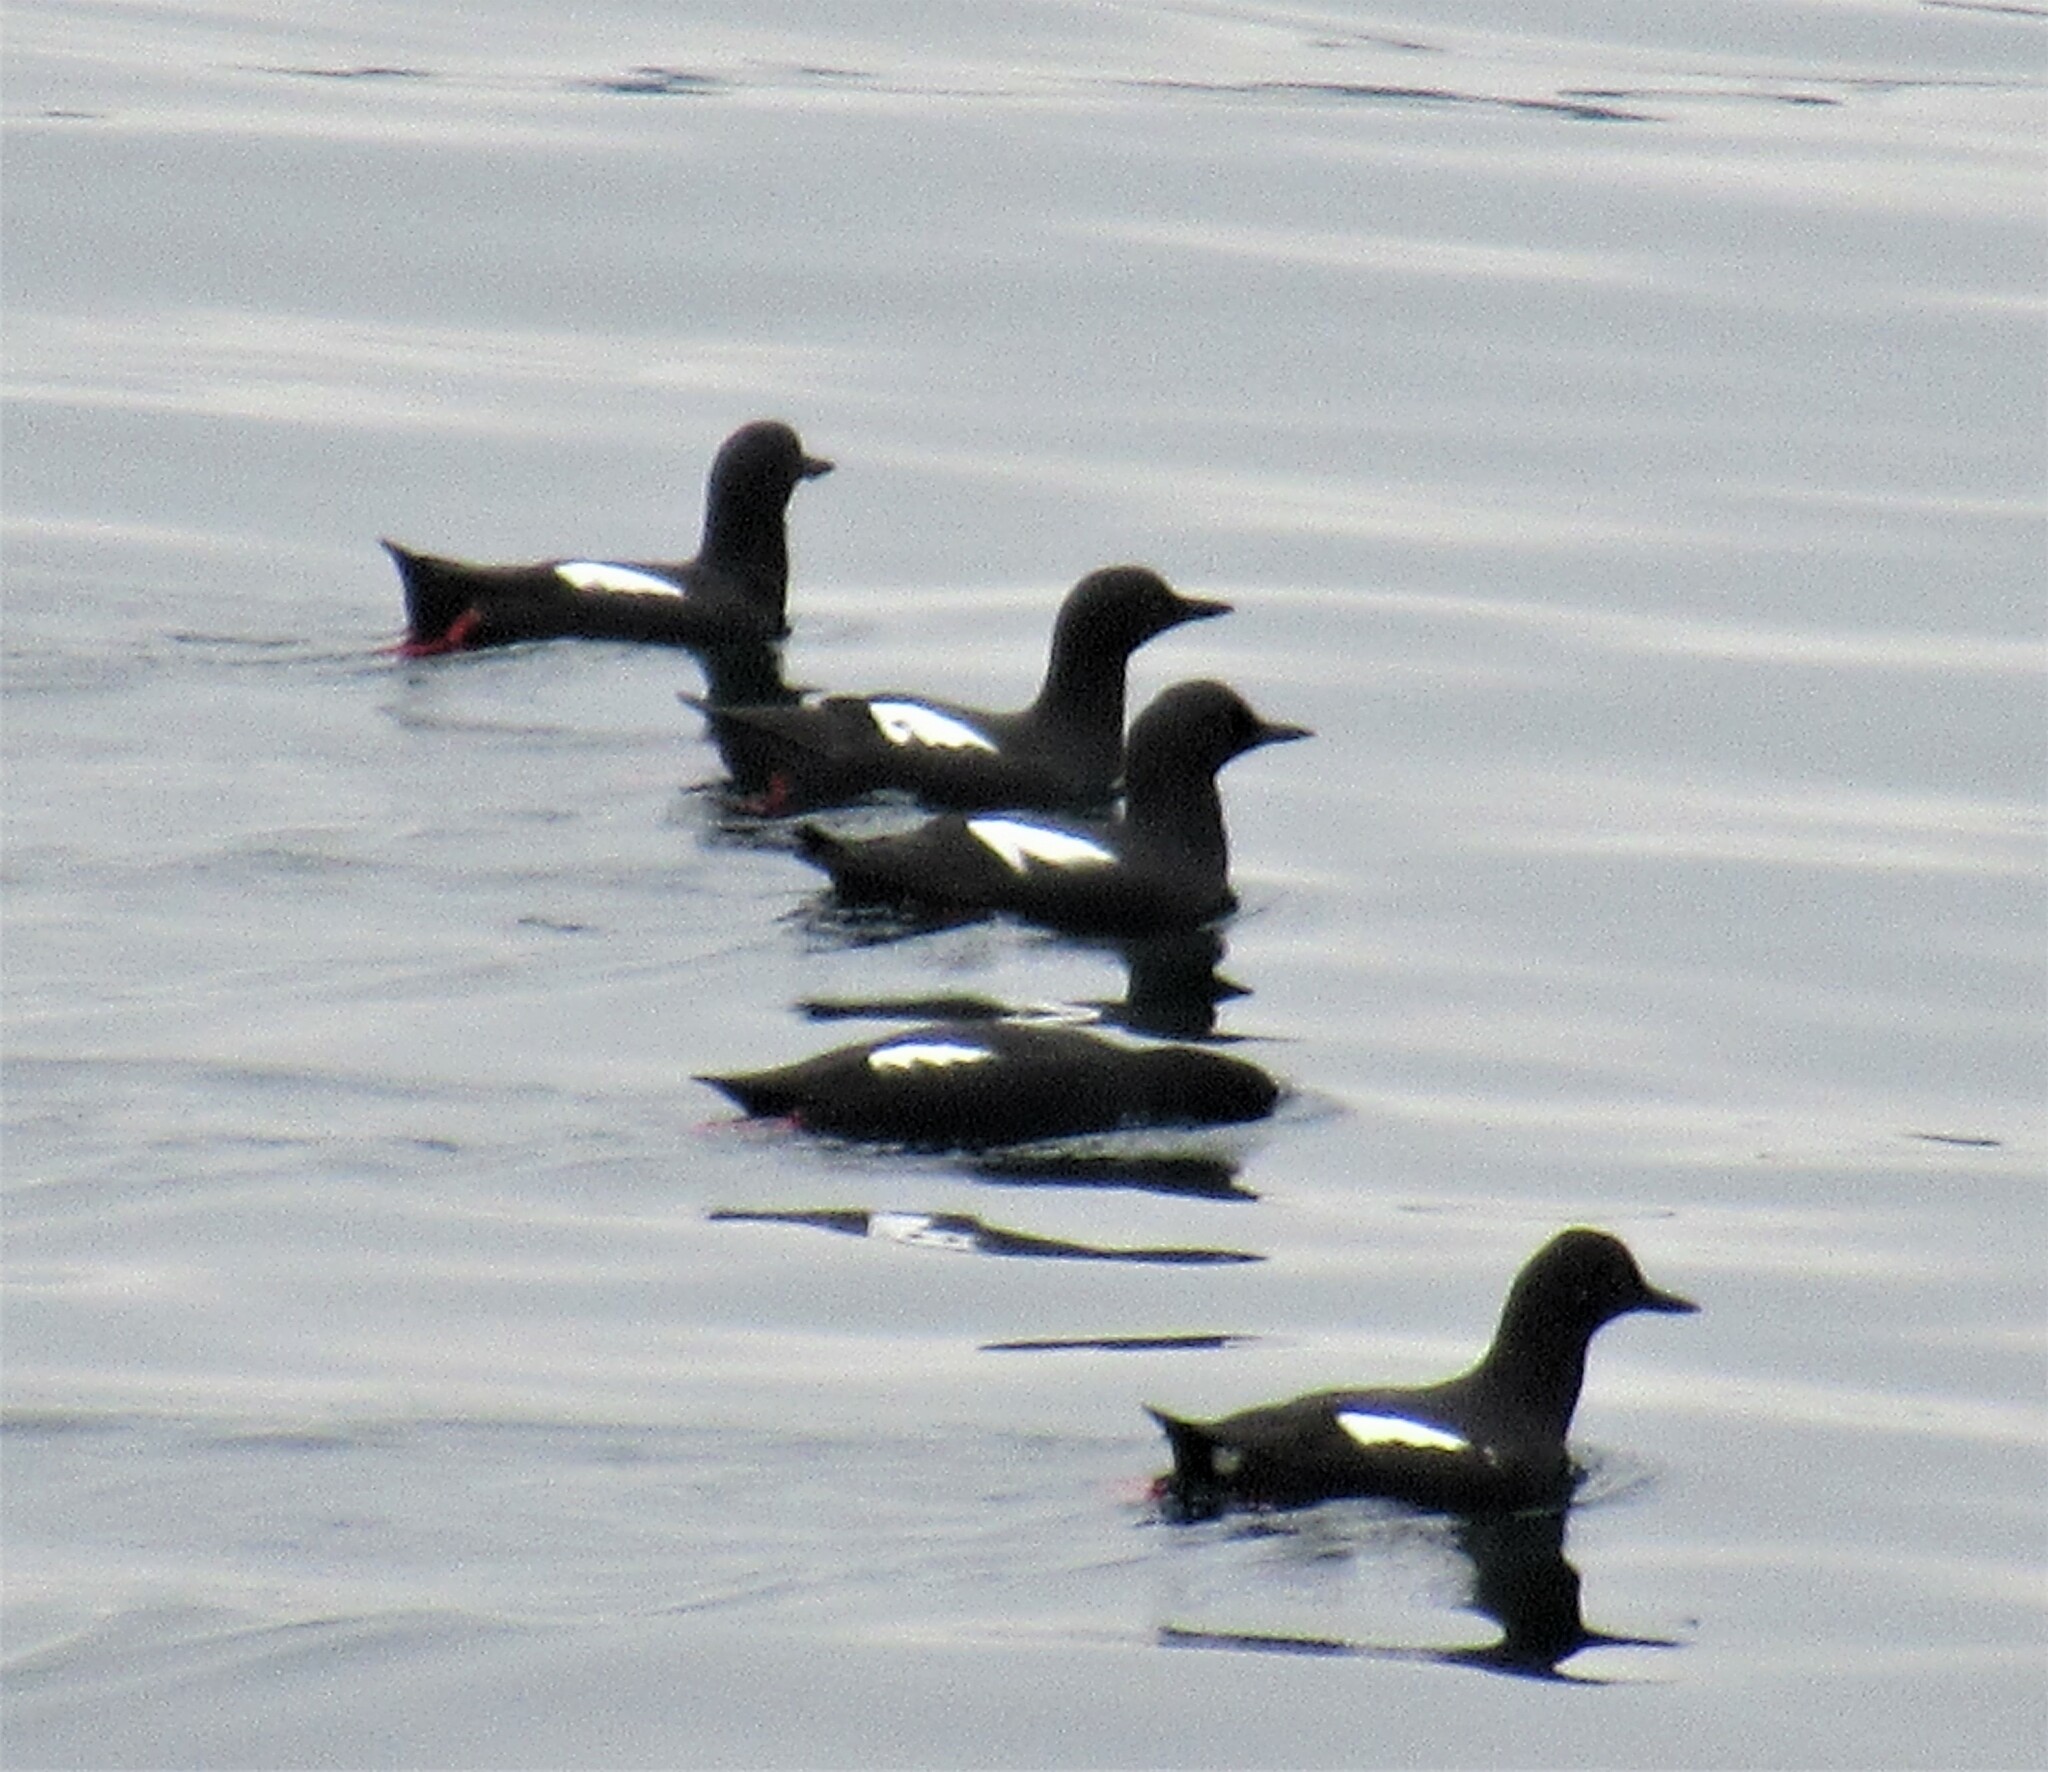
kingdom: Animalia
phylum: Chordata
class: Aves
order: Charadriiformes
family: Alcidae
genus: Cepphus
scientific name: Cepphus columba
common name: Pigeon guillemot
